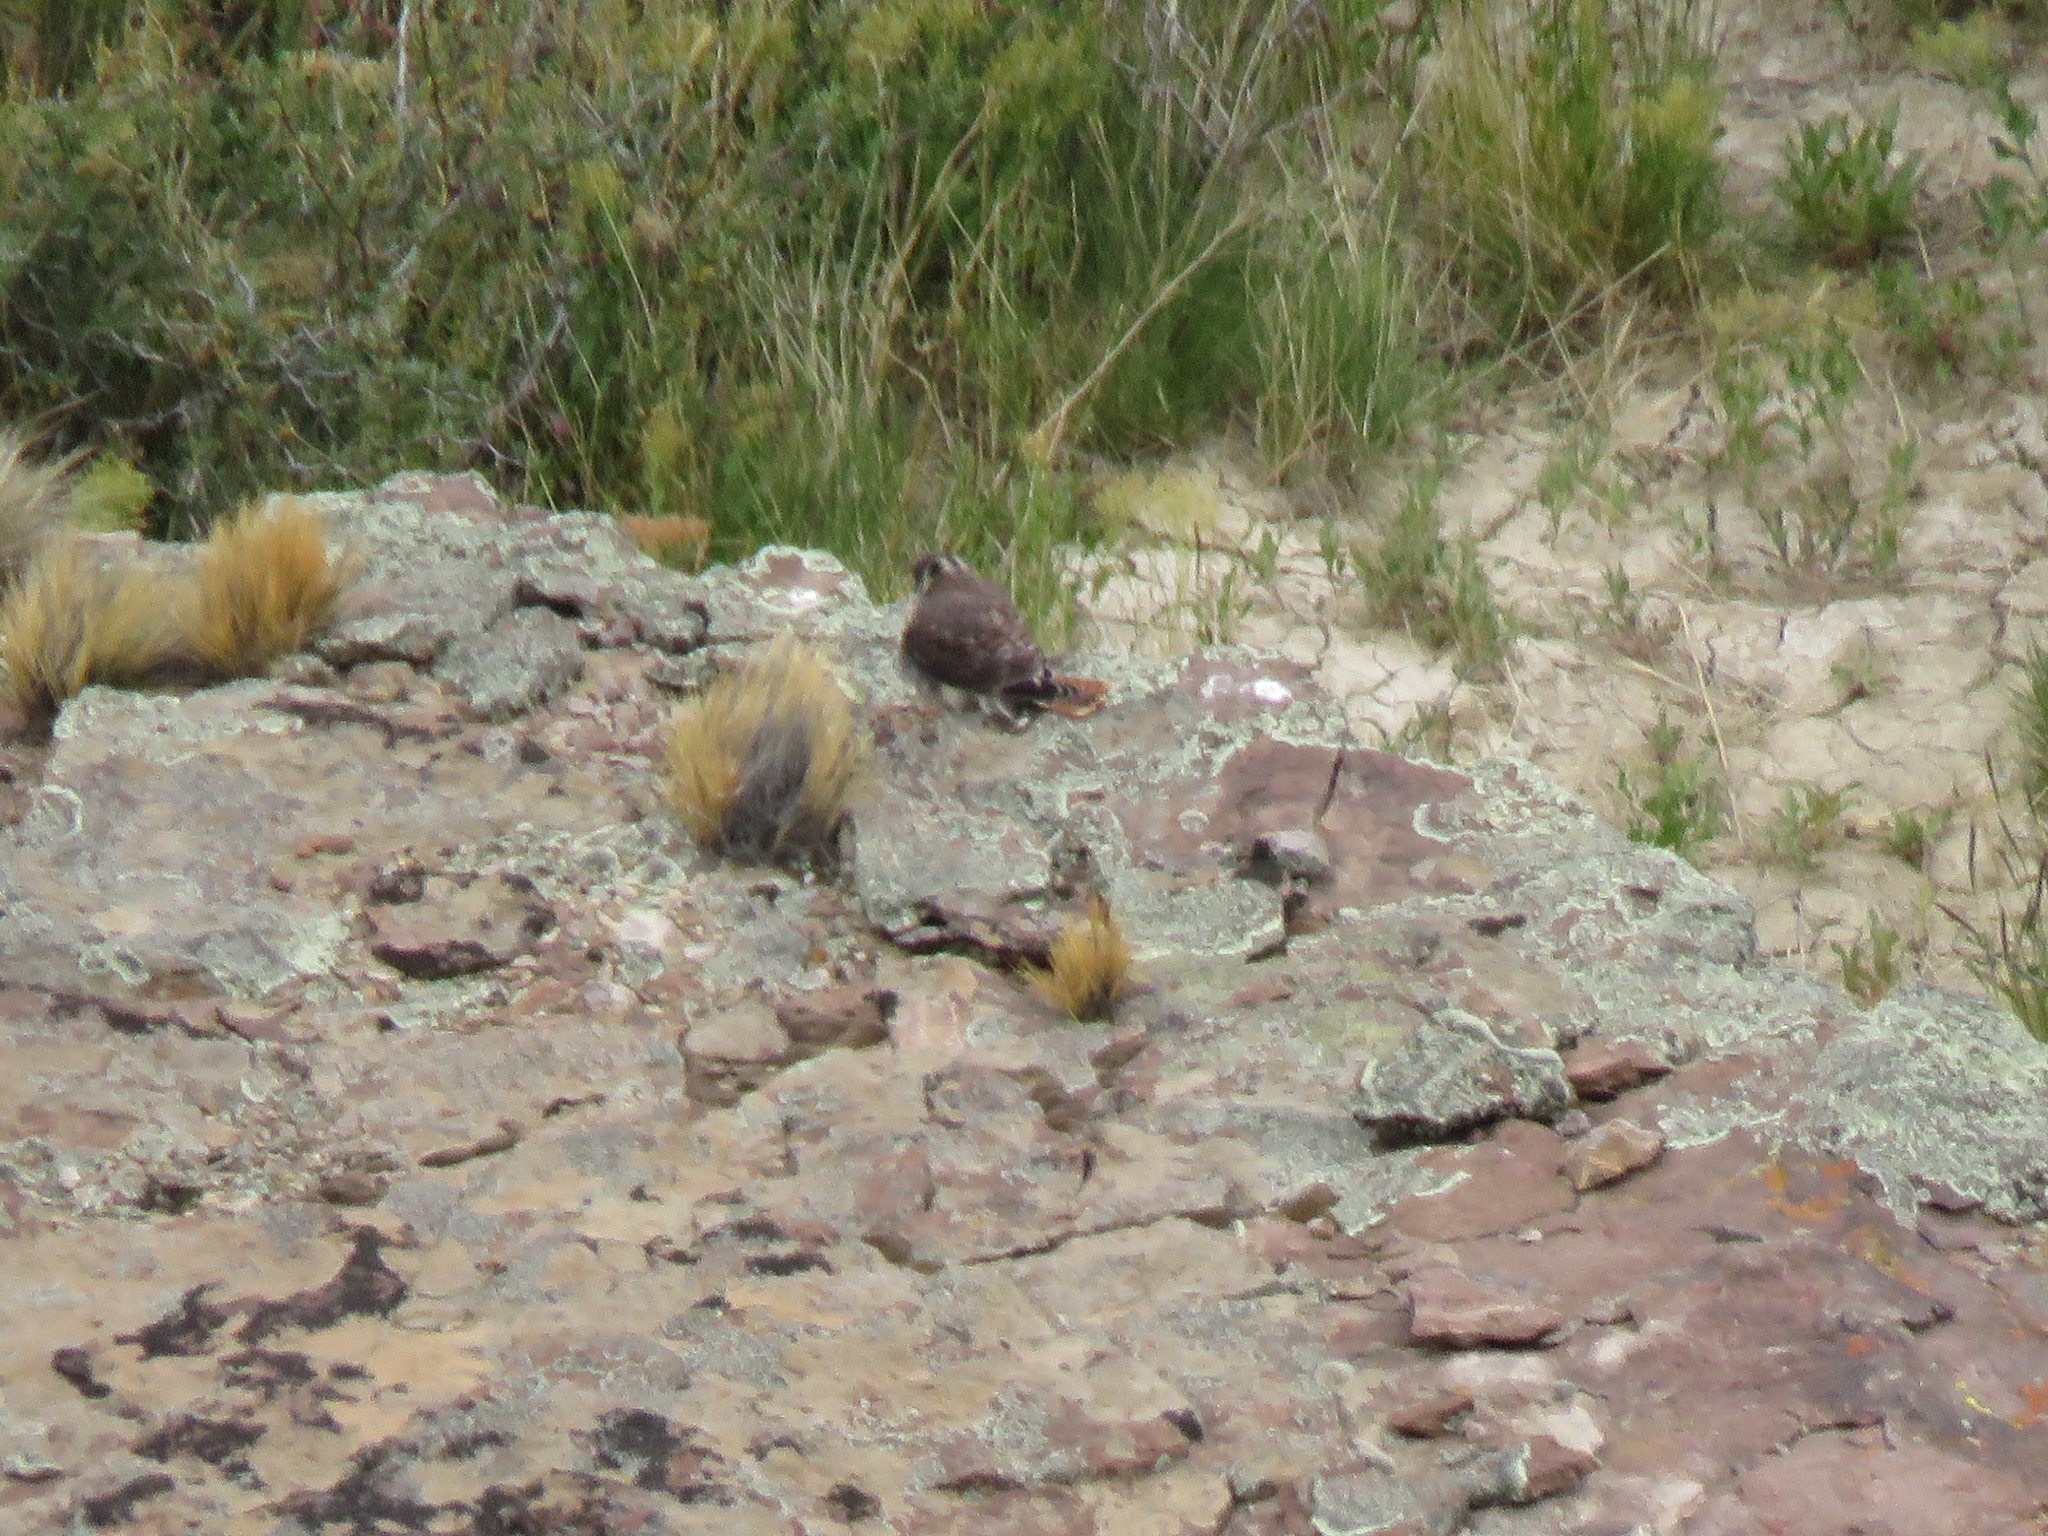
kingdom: Animalia
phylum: Chordata
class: Aves
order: Falconiformes
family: Falconidae
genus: Falco
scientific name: Falco sparverius
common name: American kestrel
